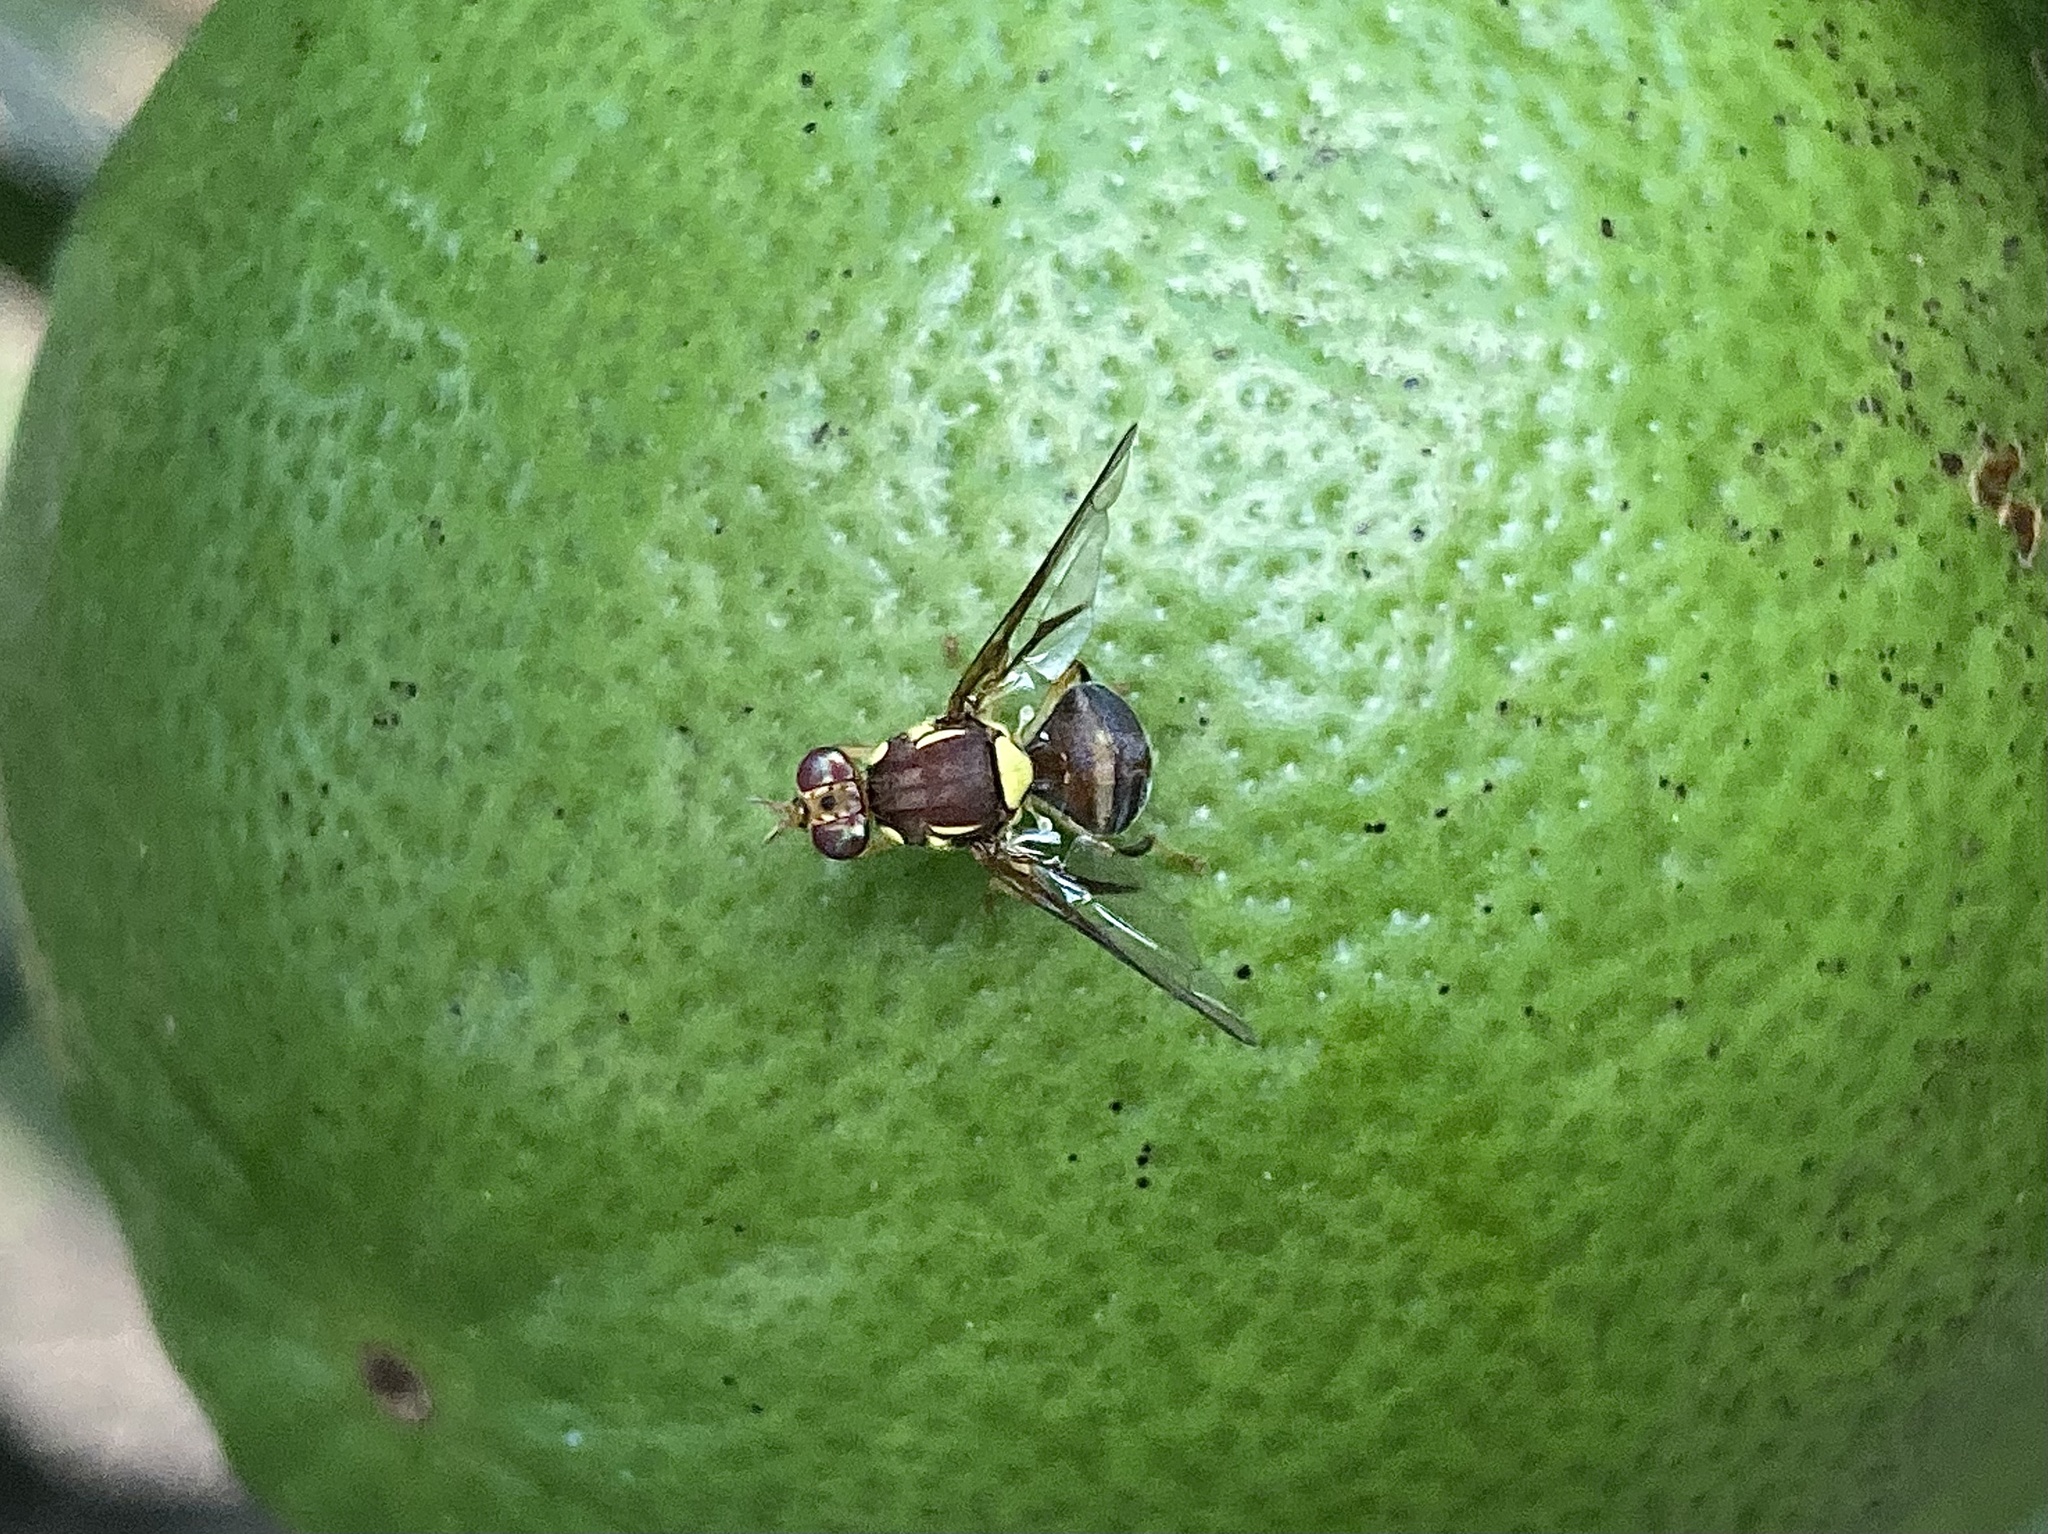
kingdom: Animalia
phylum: Arthropoda
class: Insecta
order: Diptera
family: Tephritidae
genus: Bactrocera
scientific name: Bactrocera tryoni
